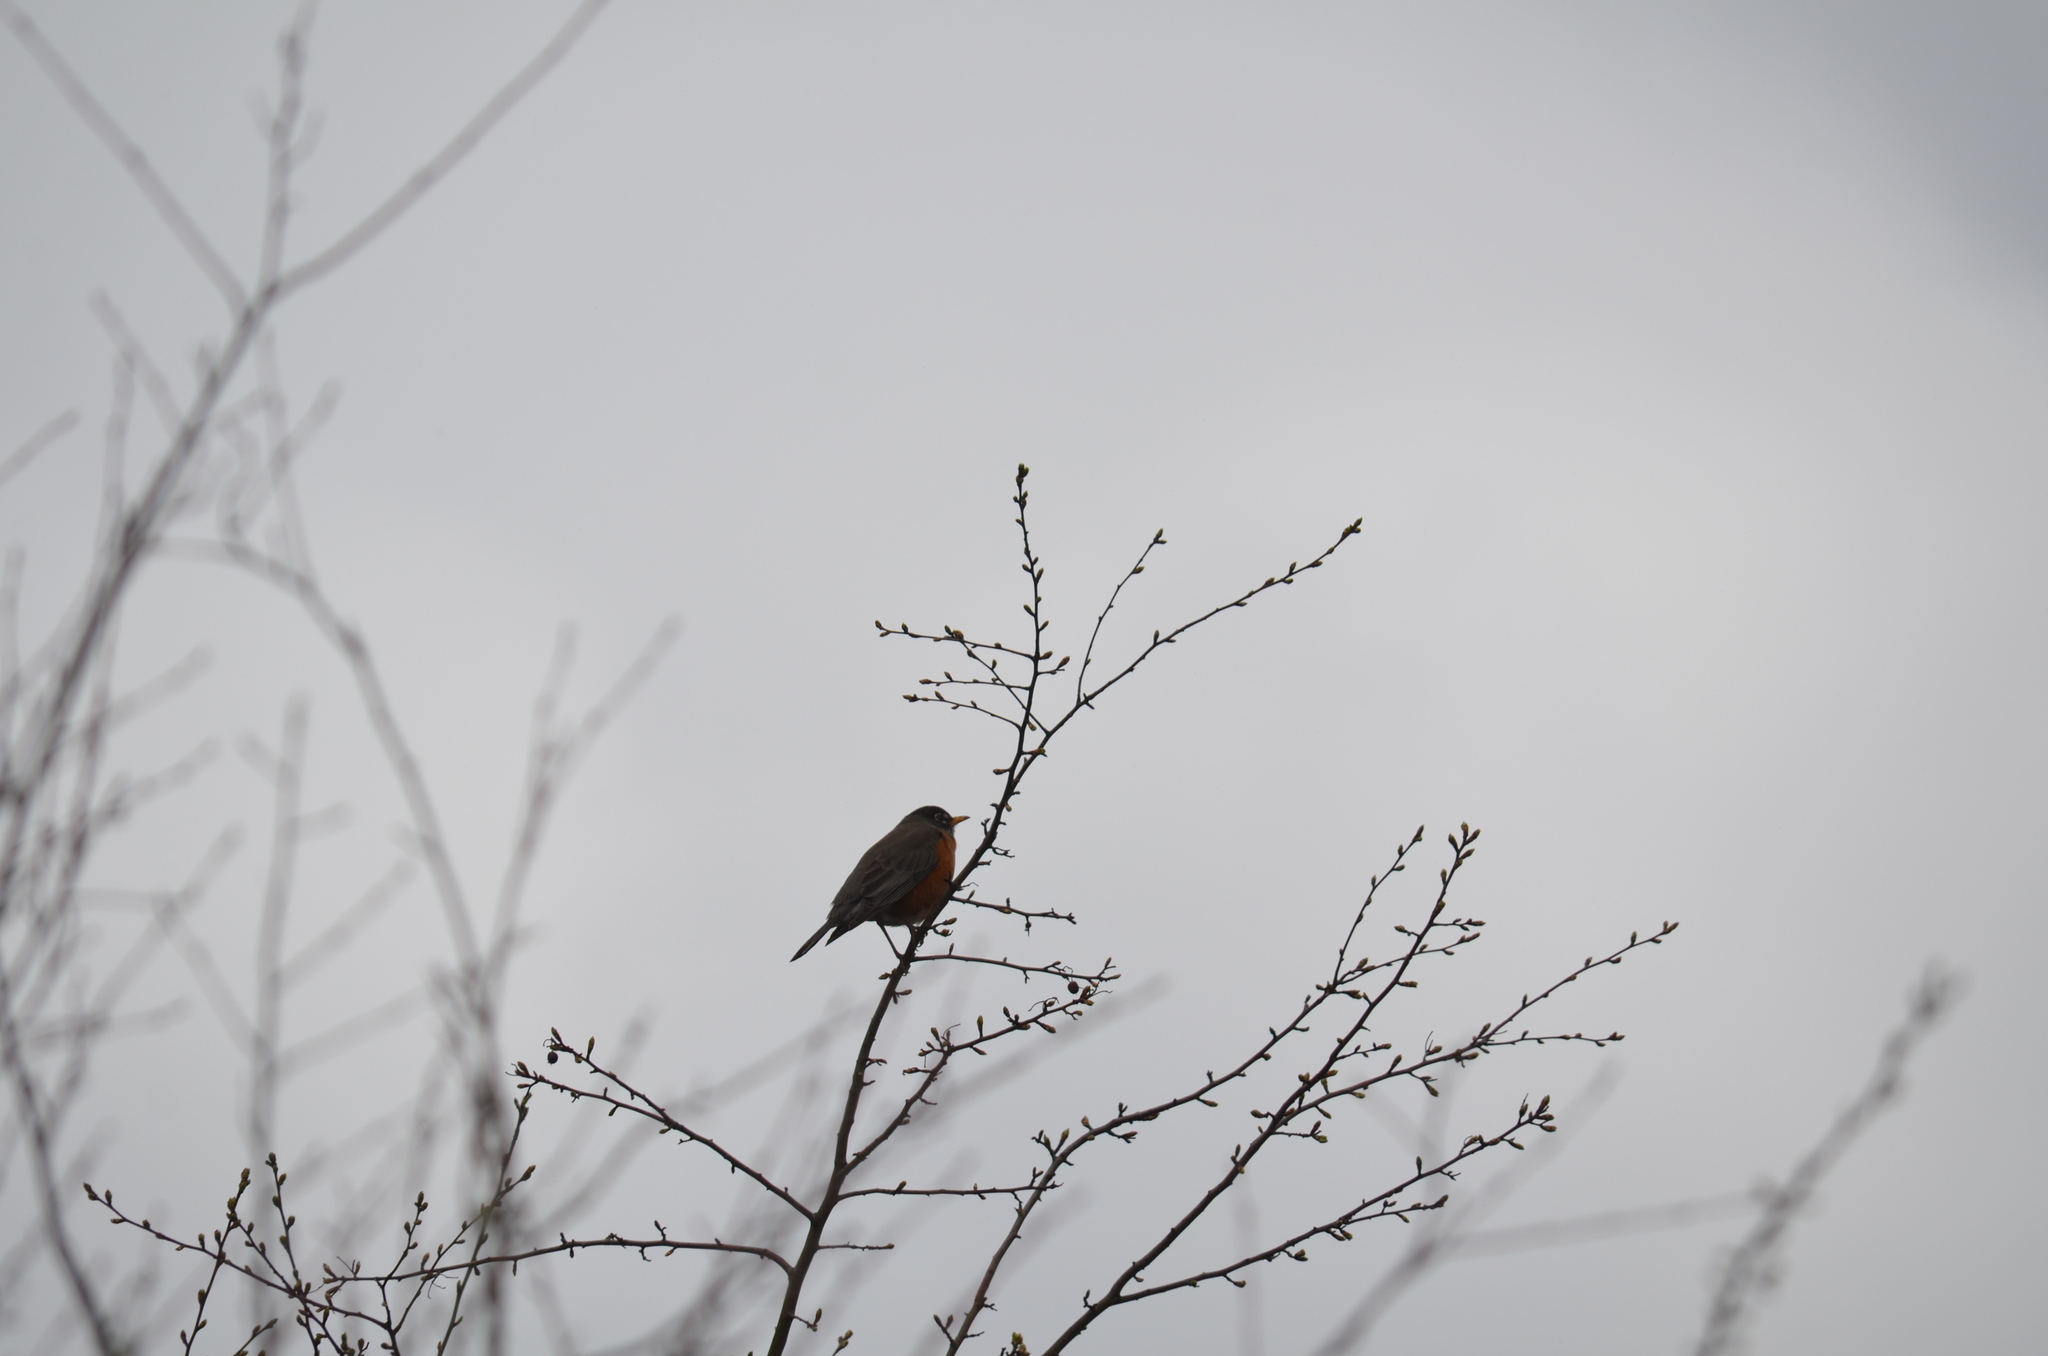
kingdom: Animalia
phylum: Chordata
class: Aves
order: Passeriformes
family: Turdidae
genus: Turdus
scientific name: Turdus migratorius
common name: American robin
